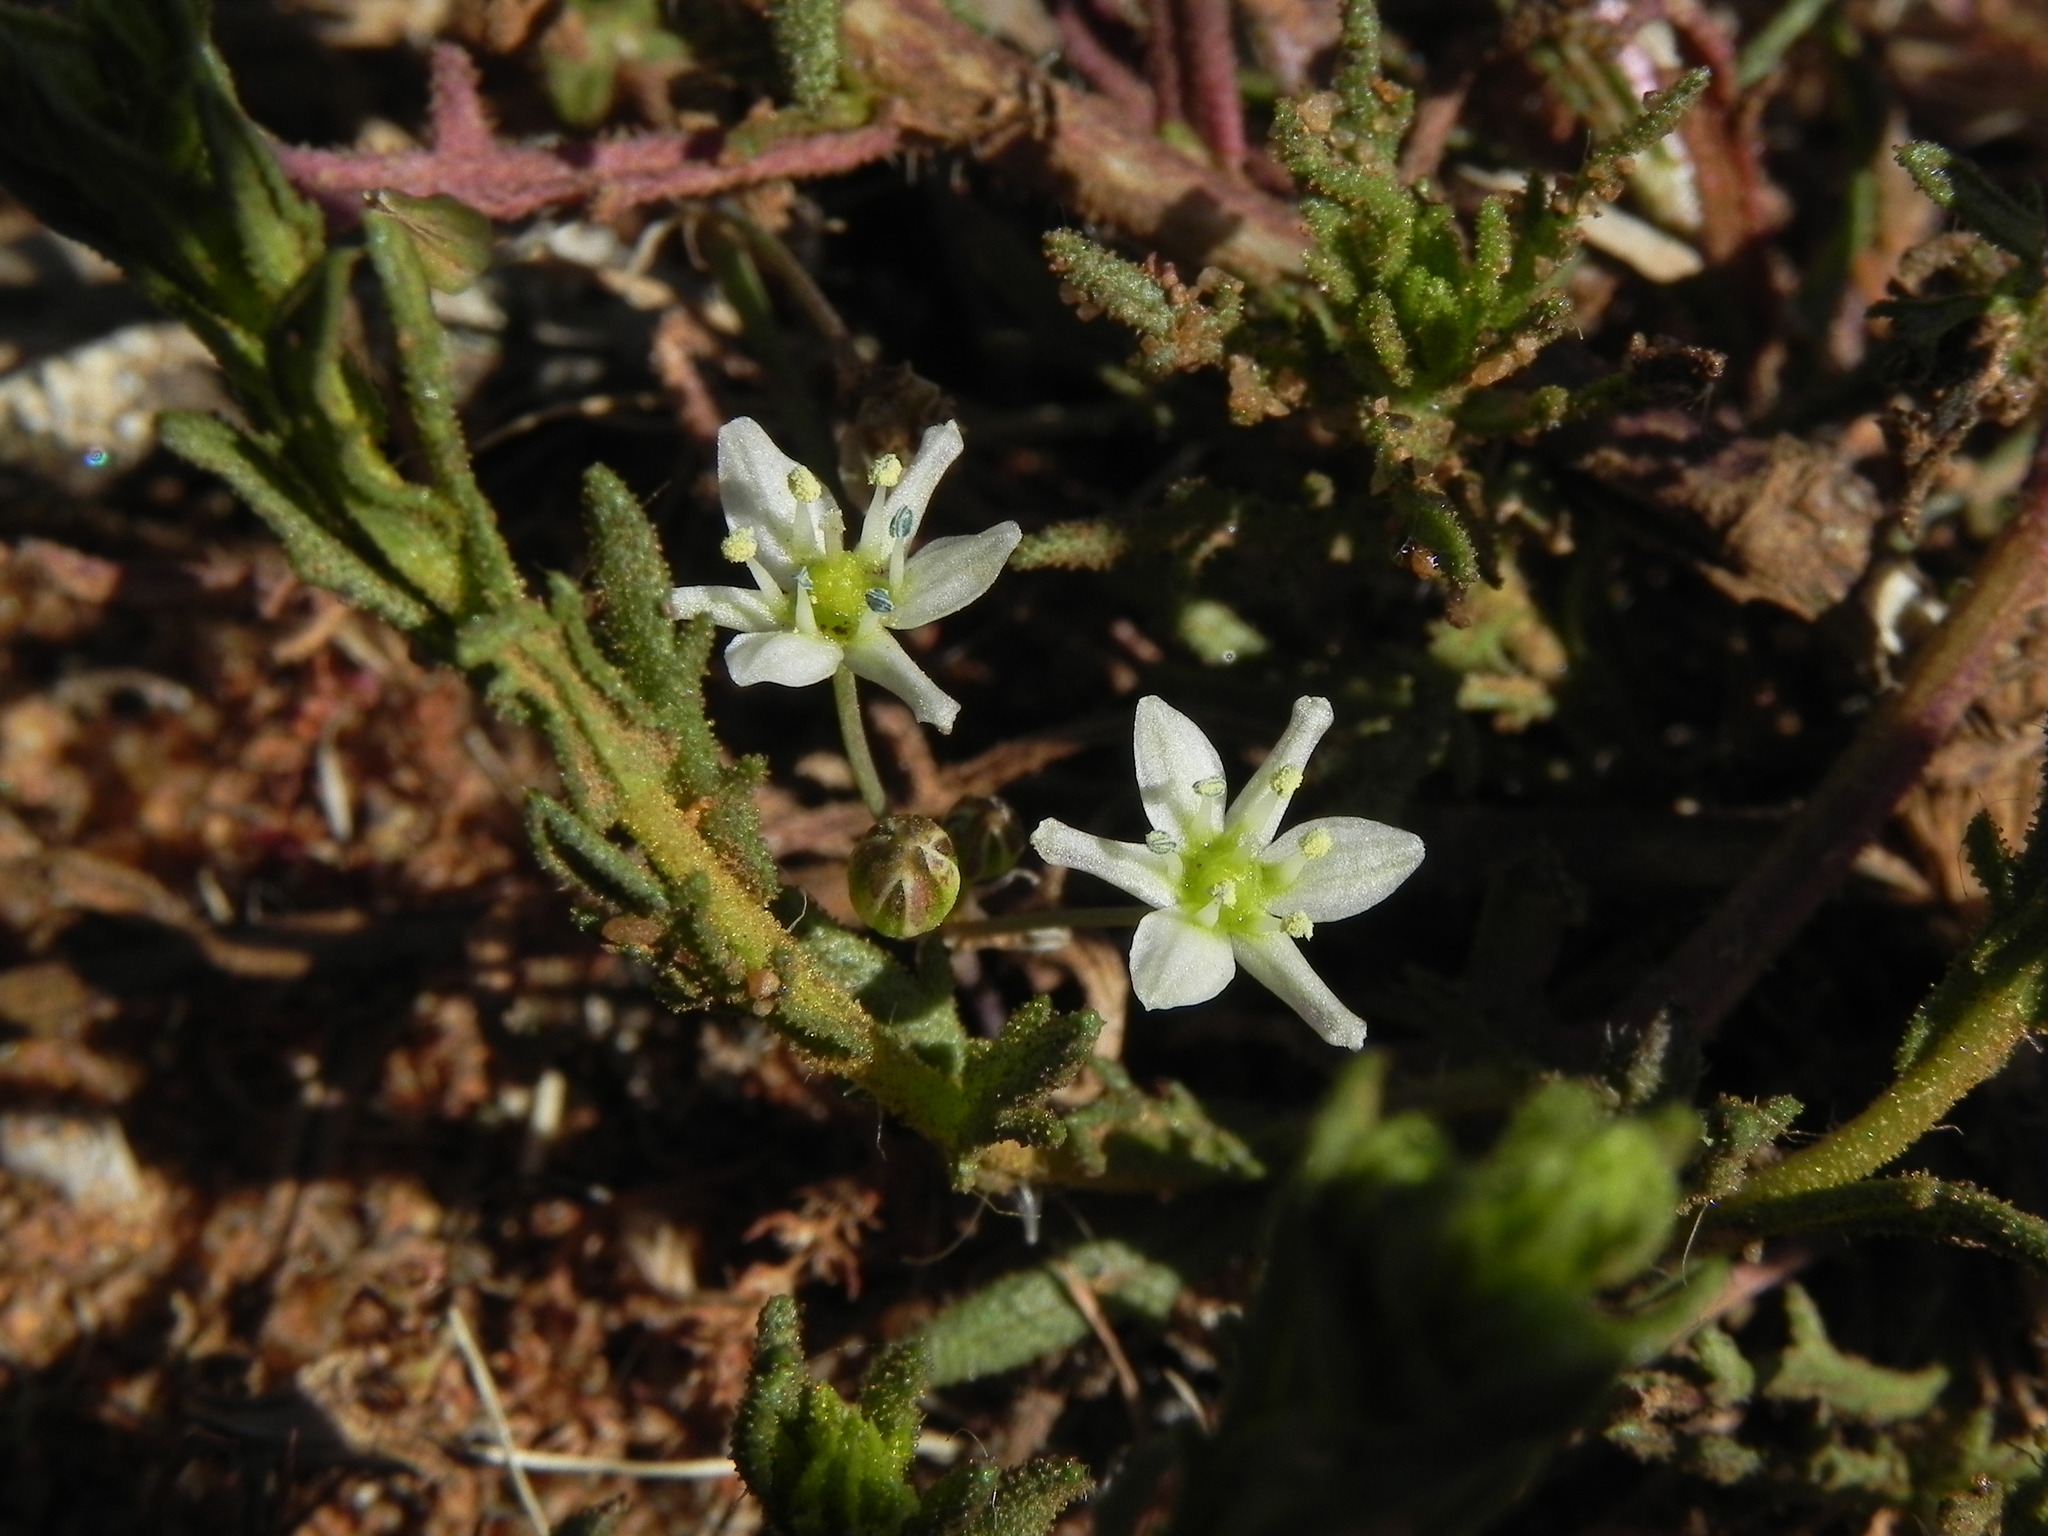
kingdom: Plantae
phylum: Tracheophyta
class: Liliopsida
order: Asparagales
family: Asparagaceae
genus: Muilla
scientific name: Muilla maritima
